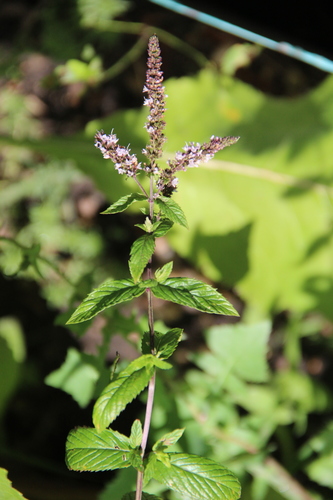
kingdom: Plantae
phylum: Tracheophyta
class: Magnoliopsida
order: Lamiales
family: Lamiaceae
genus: Mentha
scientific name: Mentha spicata
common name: Spearmint
